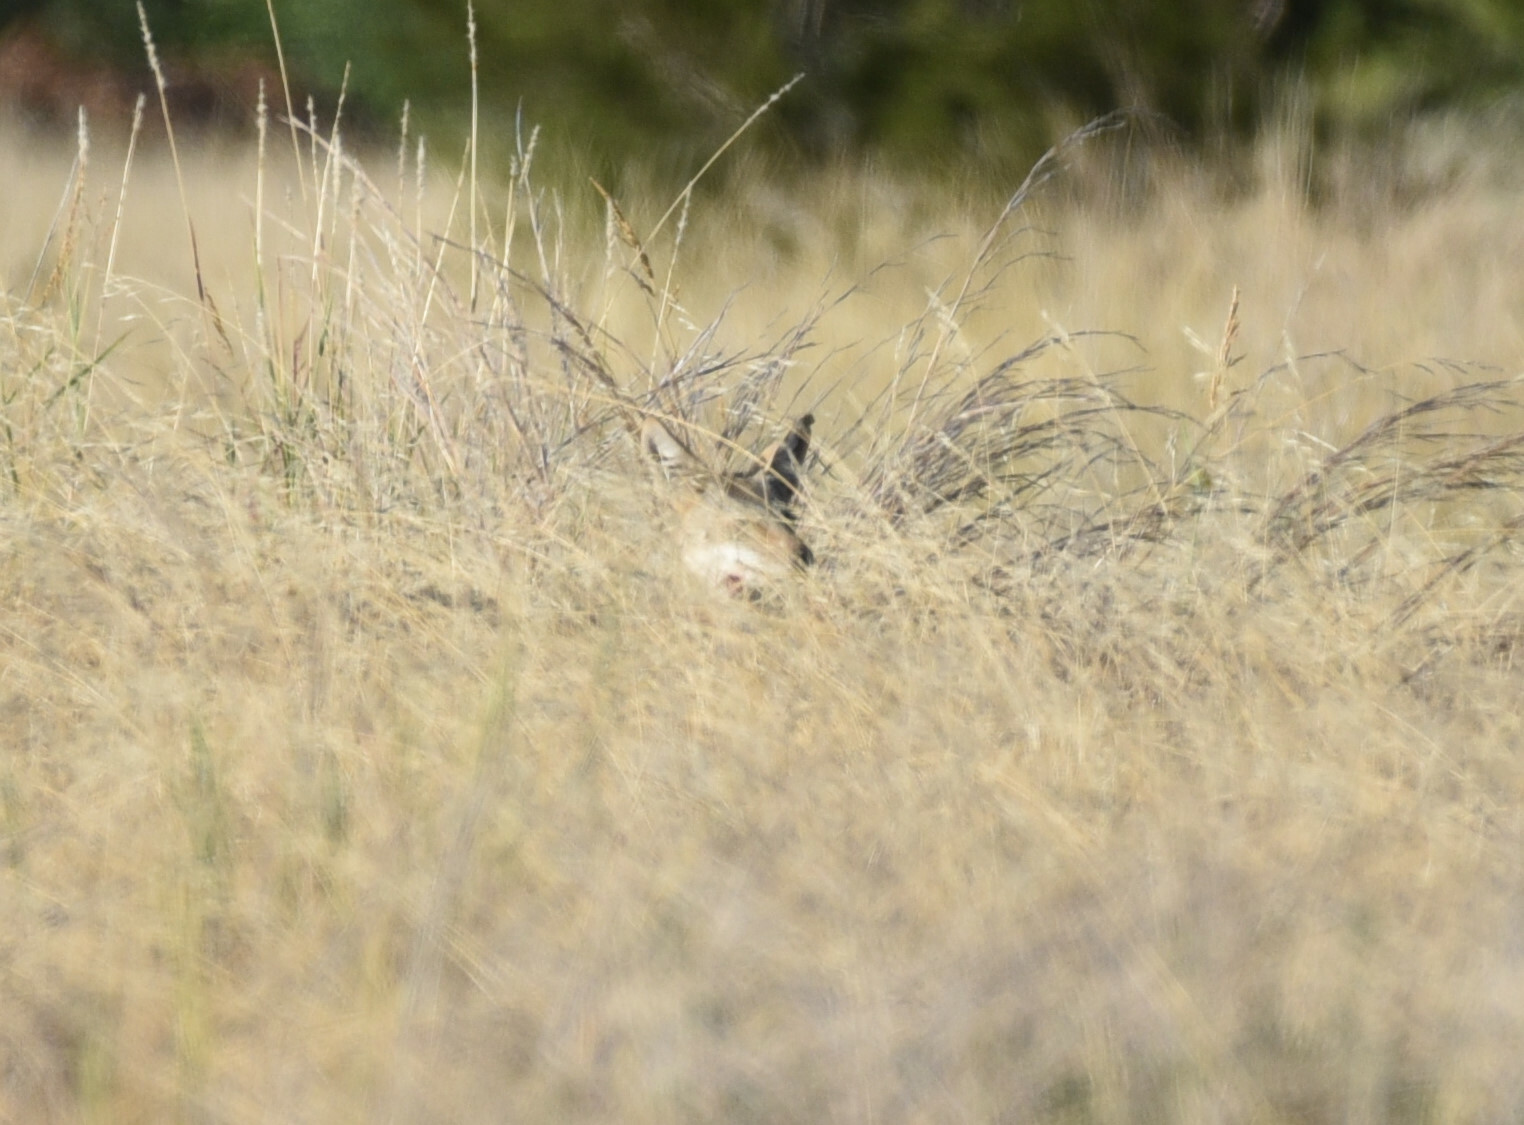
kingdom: Animalia
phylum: Chordata
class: Mammalia
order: Carnivora
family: Canidae
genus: Canis
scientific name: Canis latrans
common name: Coyote
